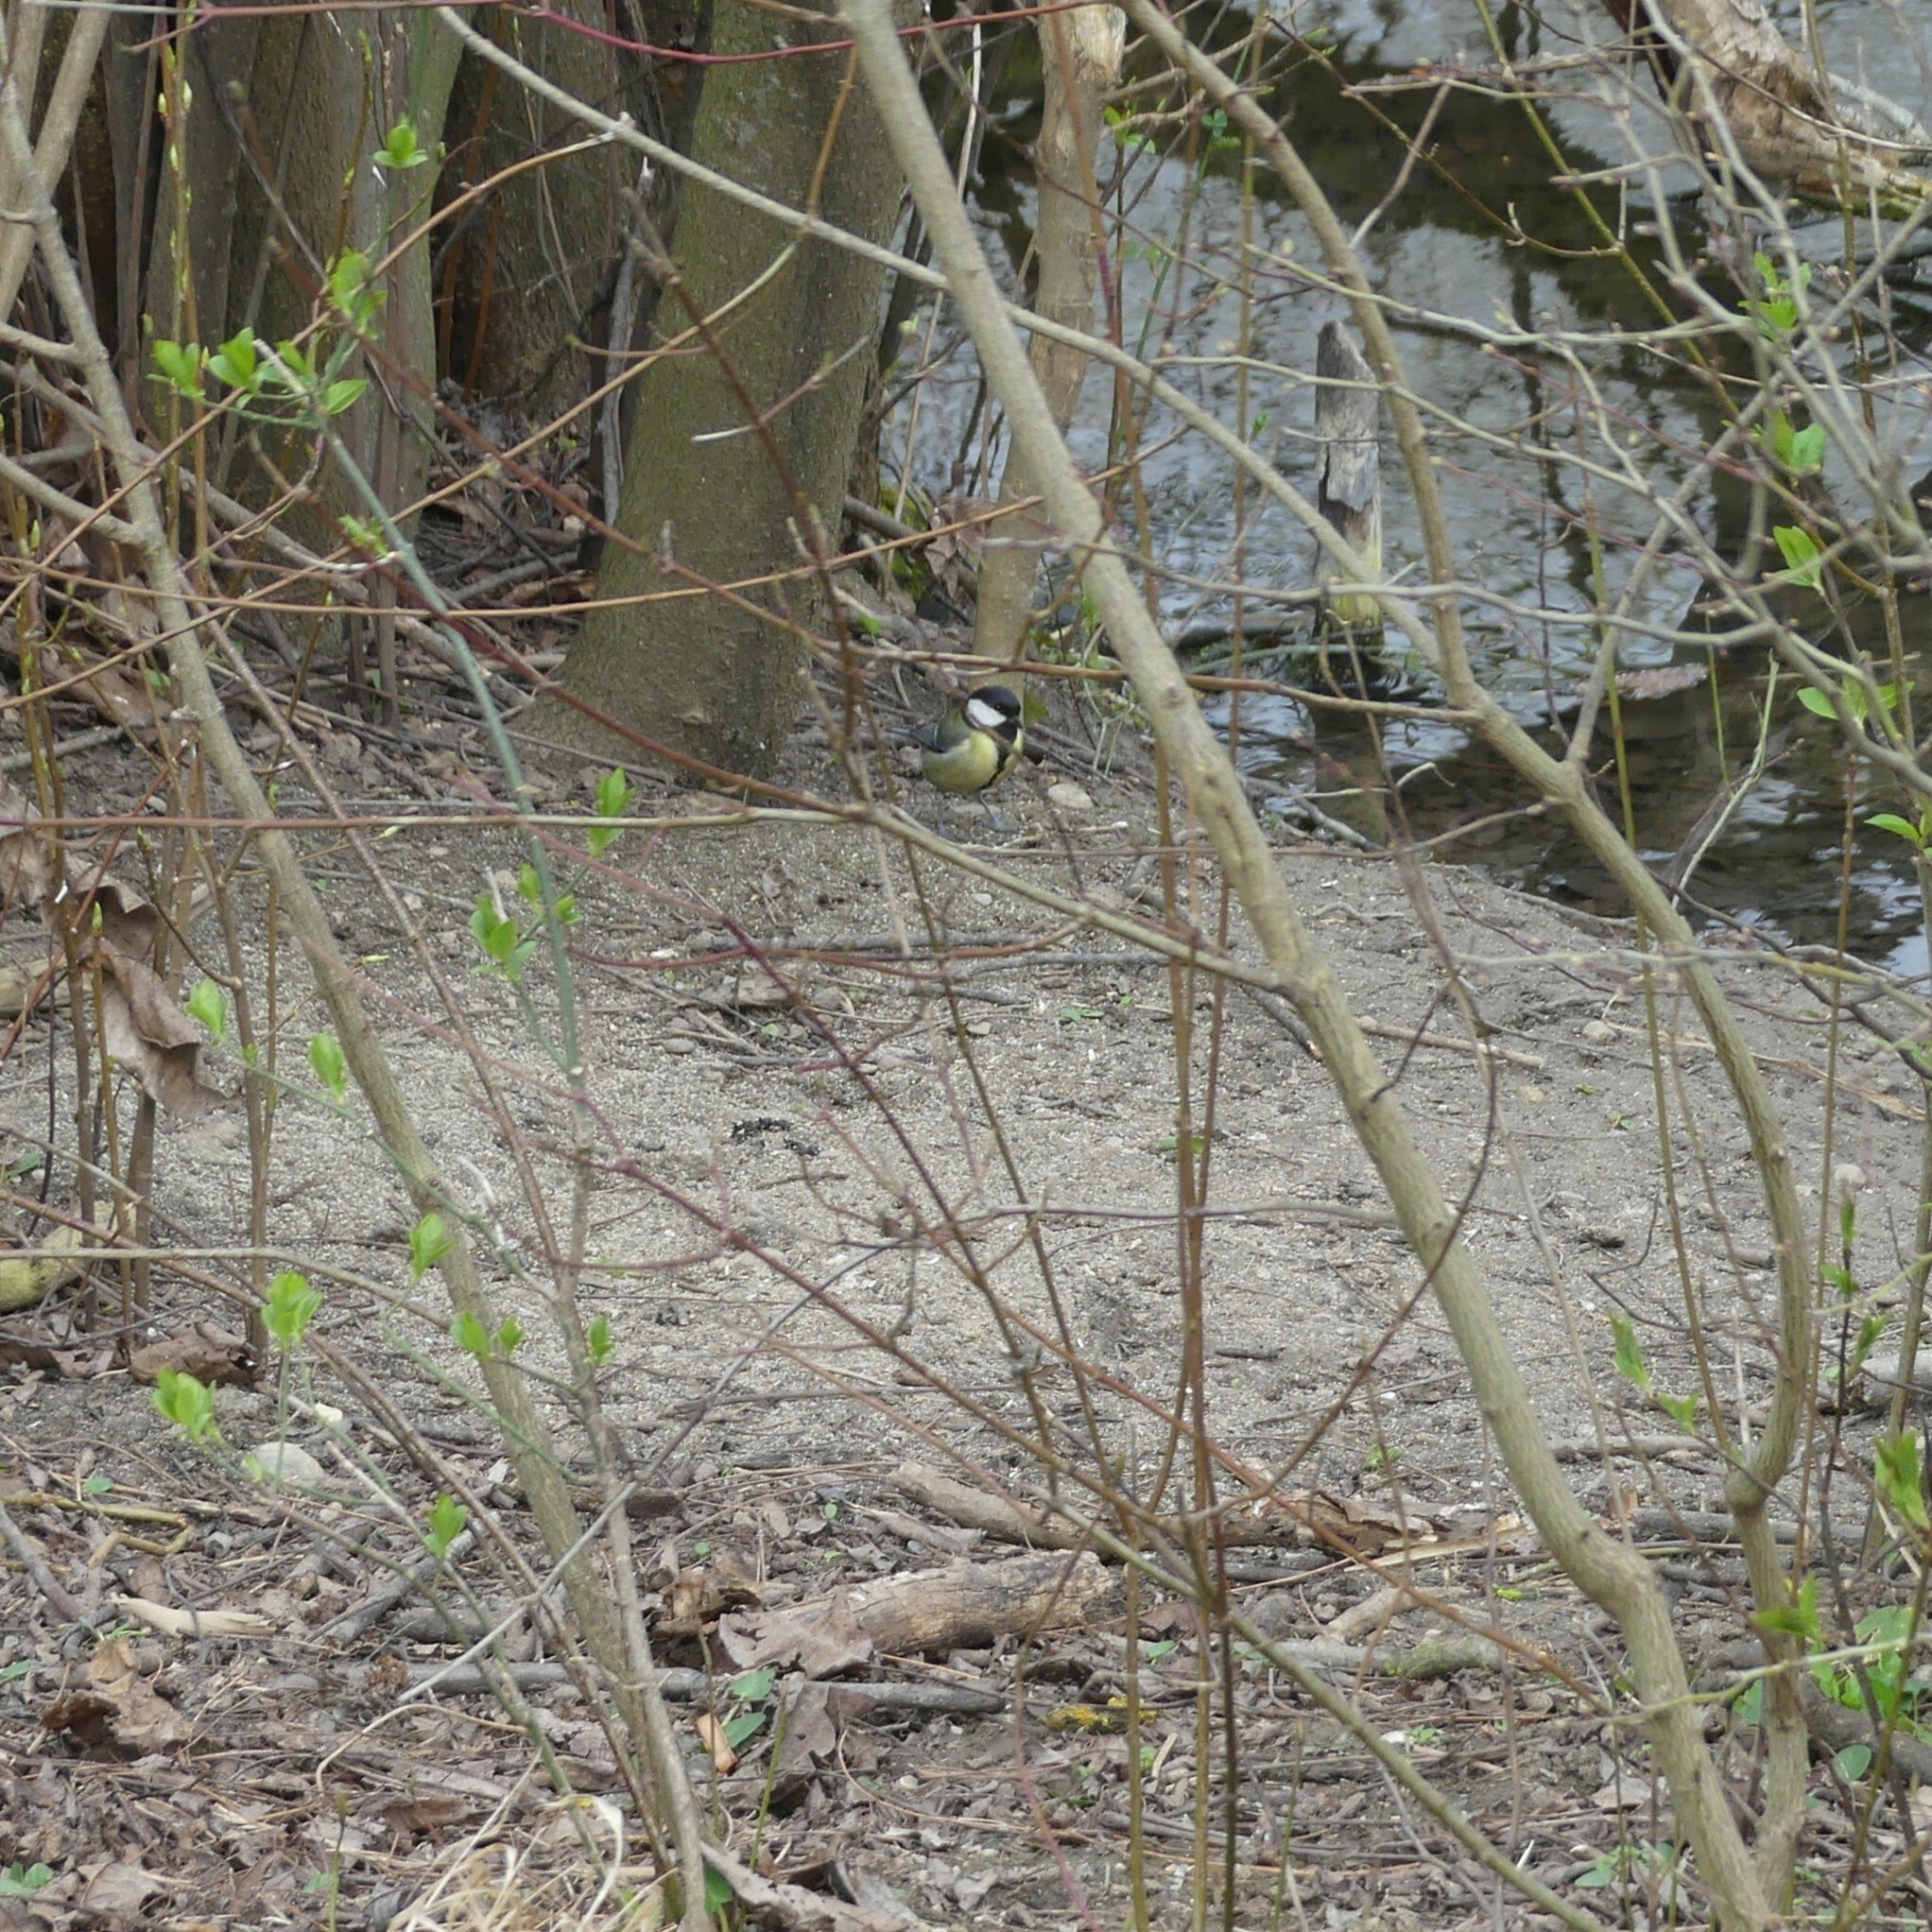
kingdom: Animalia
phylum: Chordata
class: Aves
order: Passeriformes
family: Paridae
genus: Parus
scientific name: Parus major
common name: Great tit
